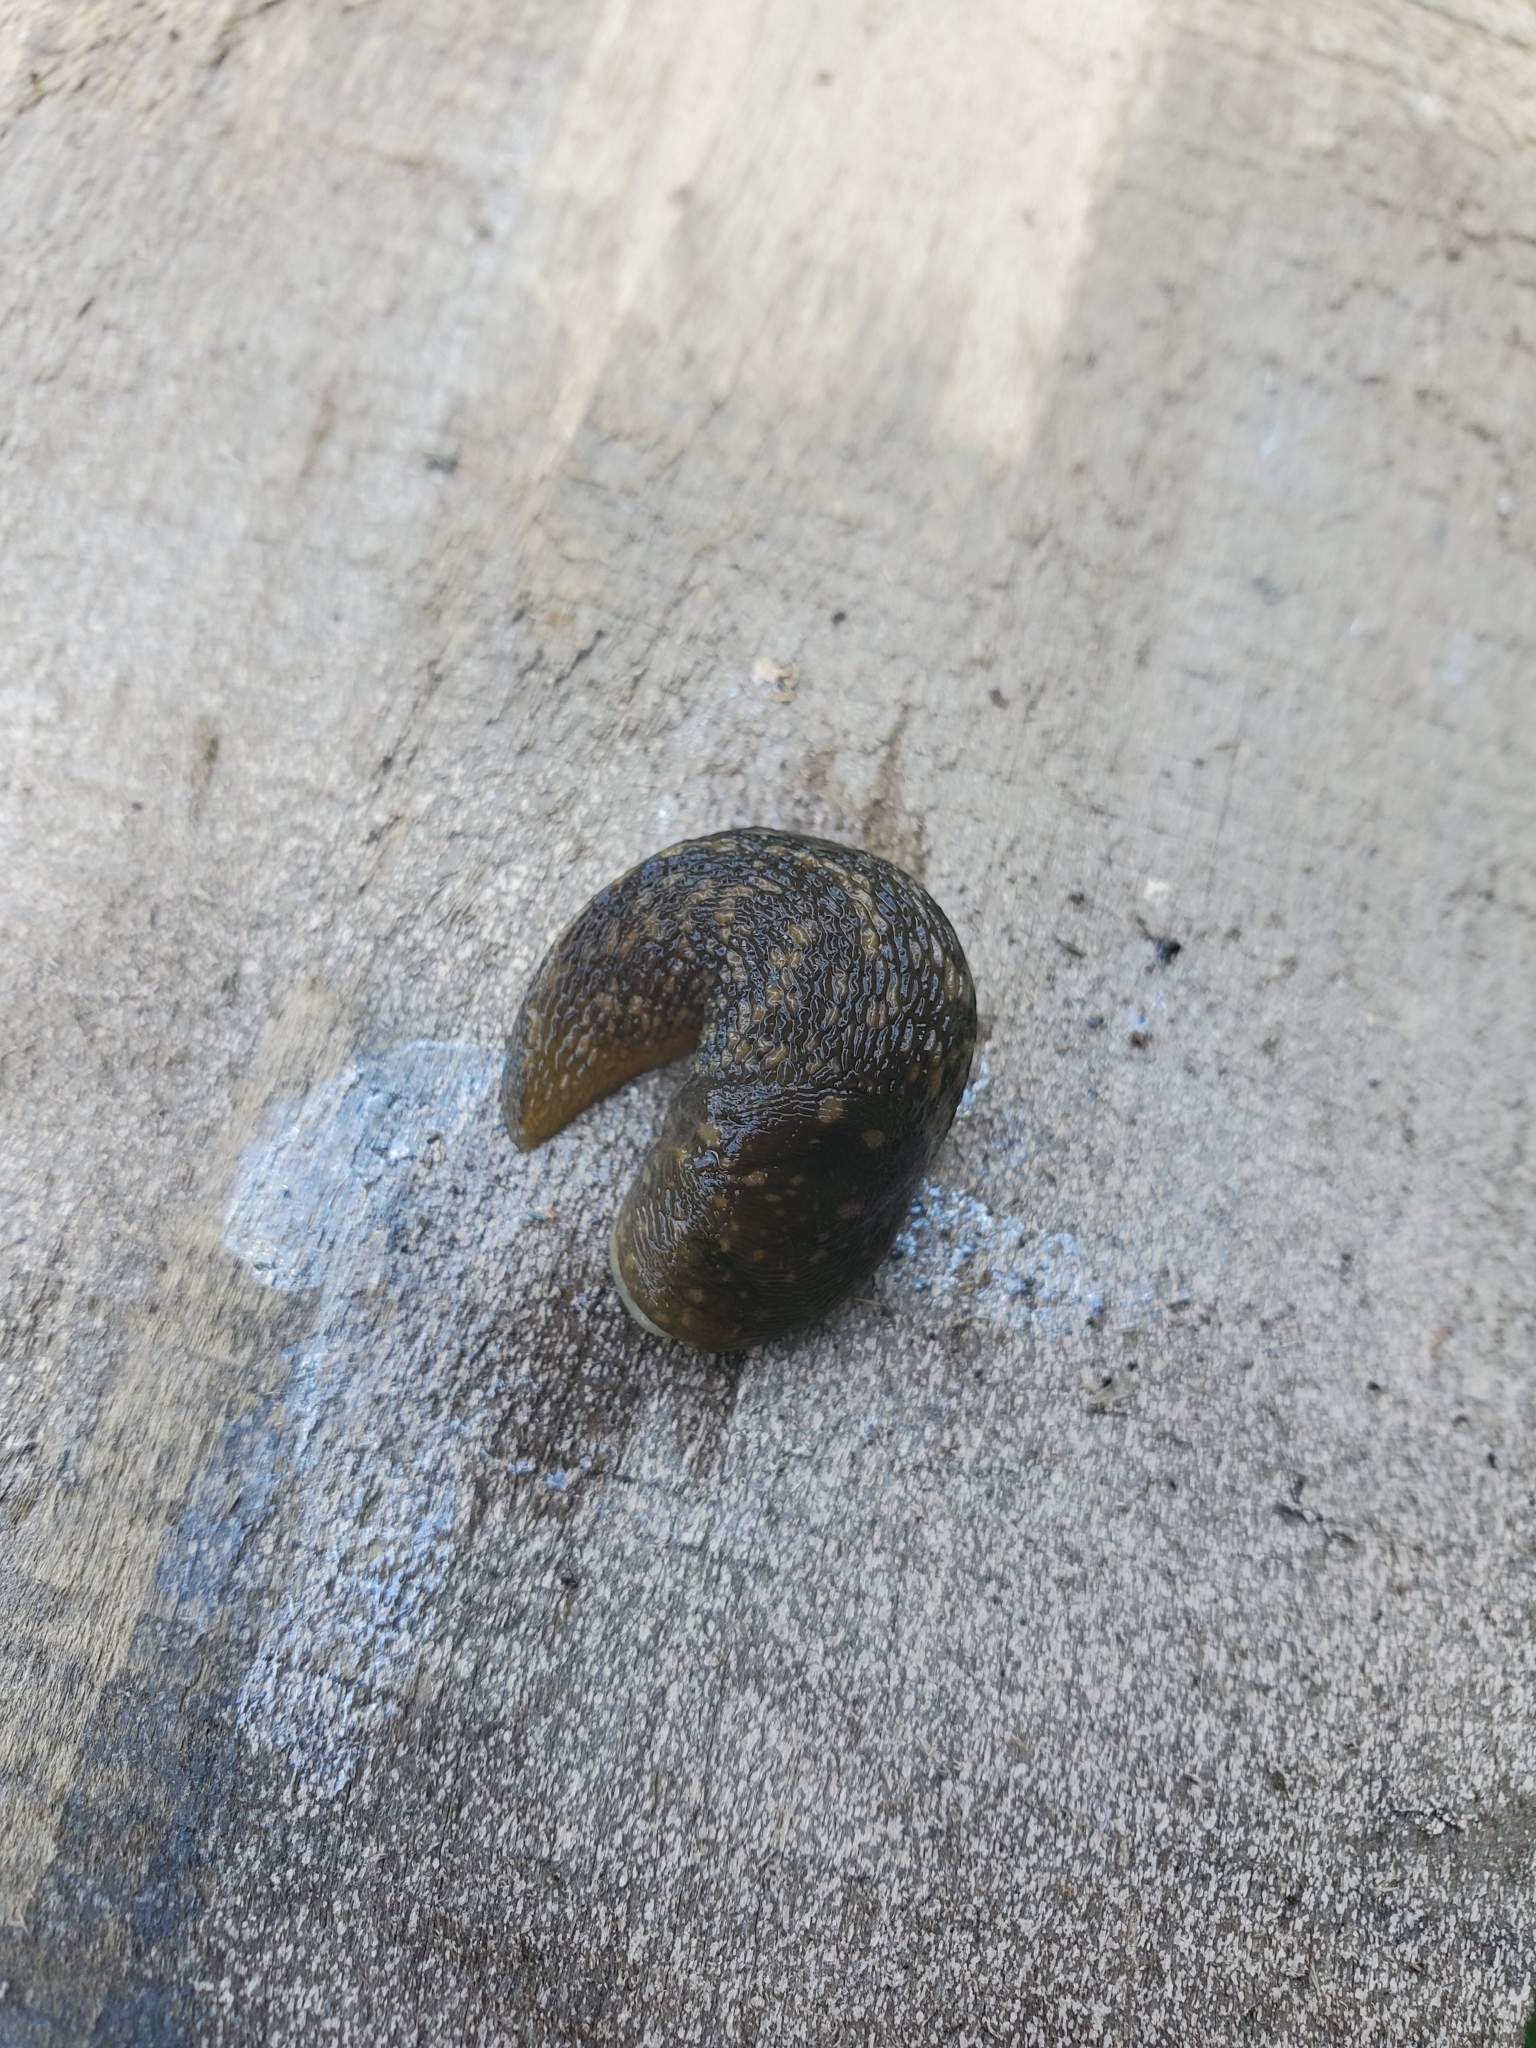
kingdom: Animalia
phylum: Mollusca
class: Gastropoda
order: Stylommatophora
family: Limacidae
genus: Limacus
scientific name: Limacus flavus
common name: Yellow gardenslug
